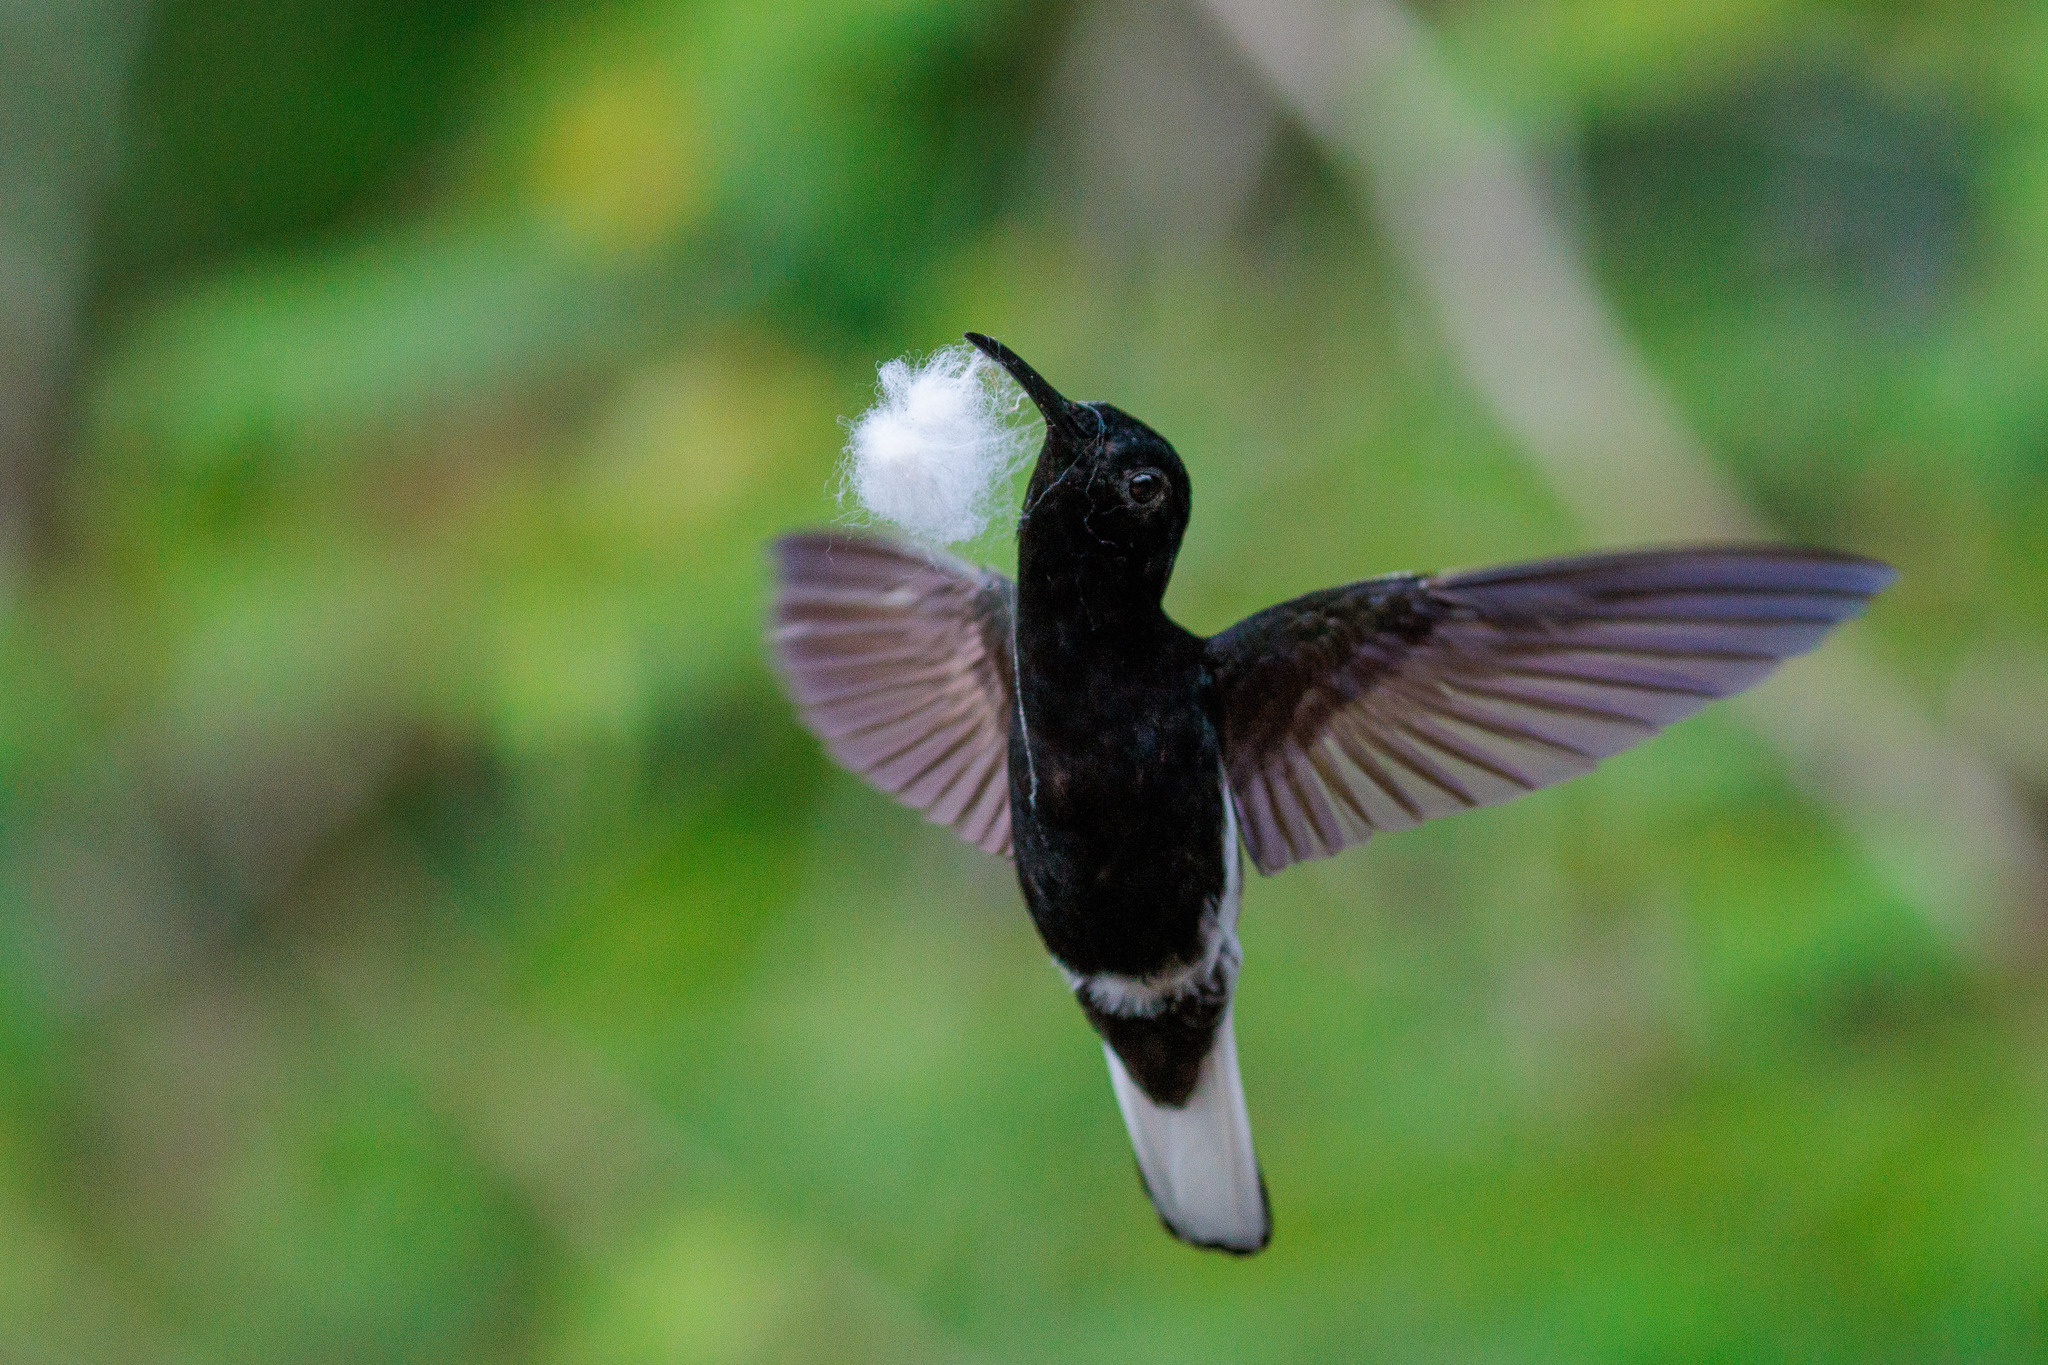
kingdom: Animalia
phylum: Chordata
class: Aves
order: Apodiformes
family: Trochilidae
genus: Florisuga
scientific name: Florisuga fusca
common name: Black jacobin
